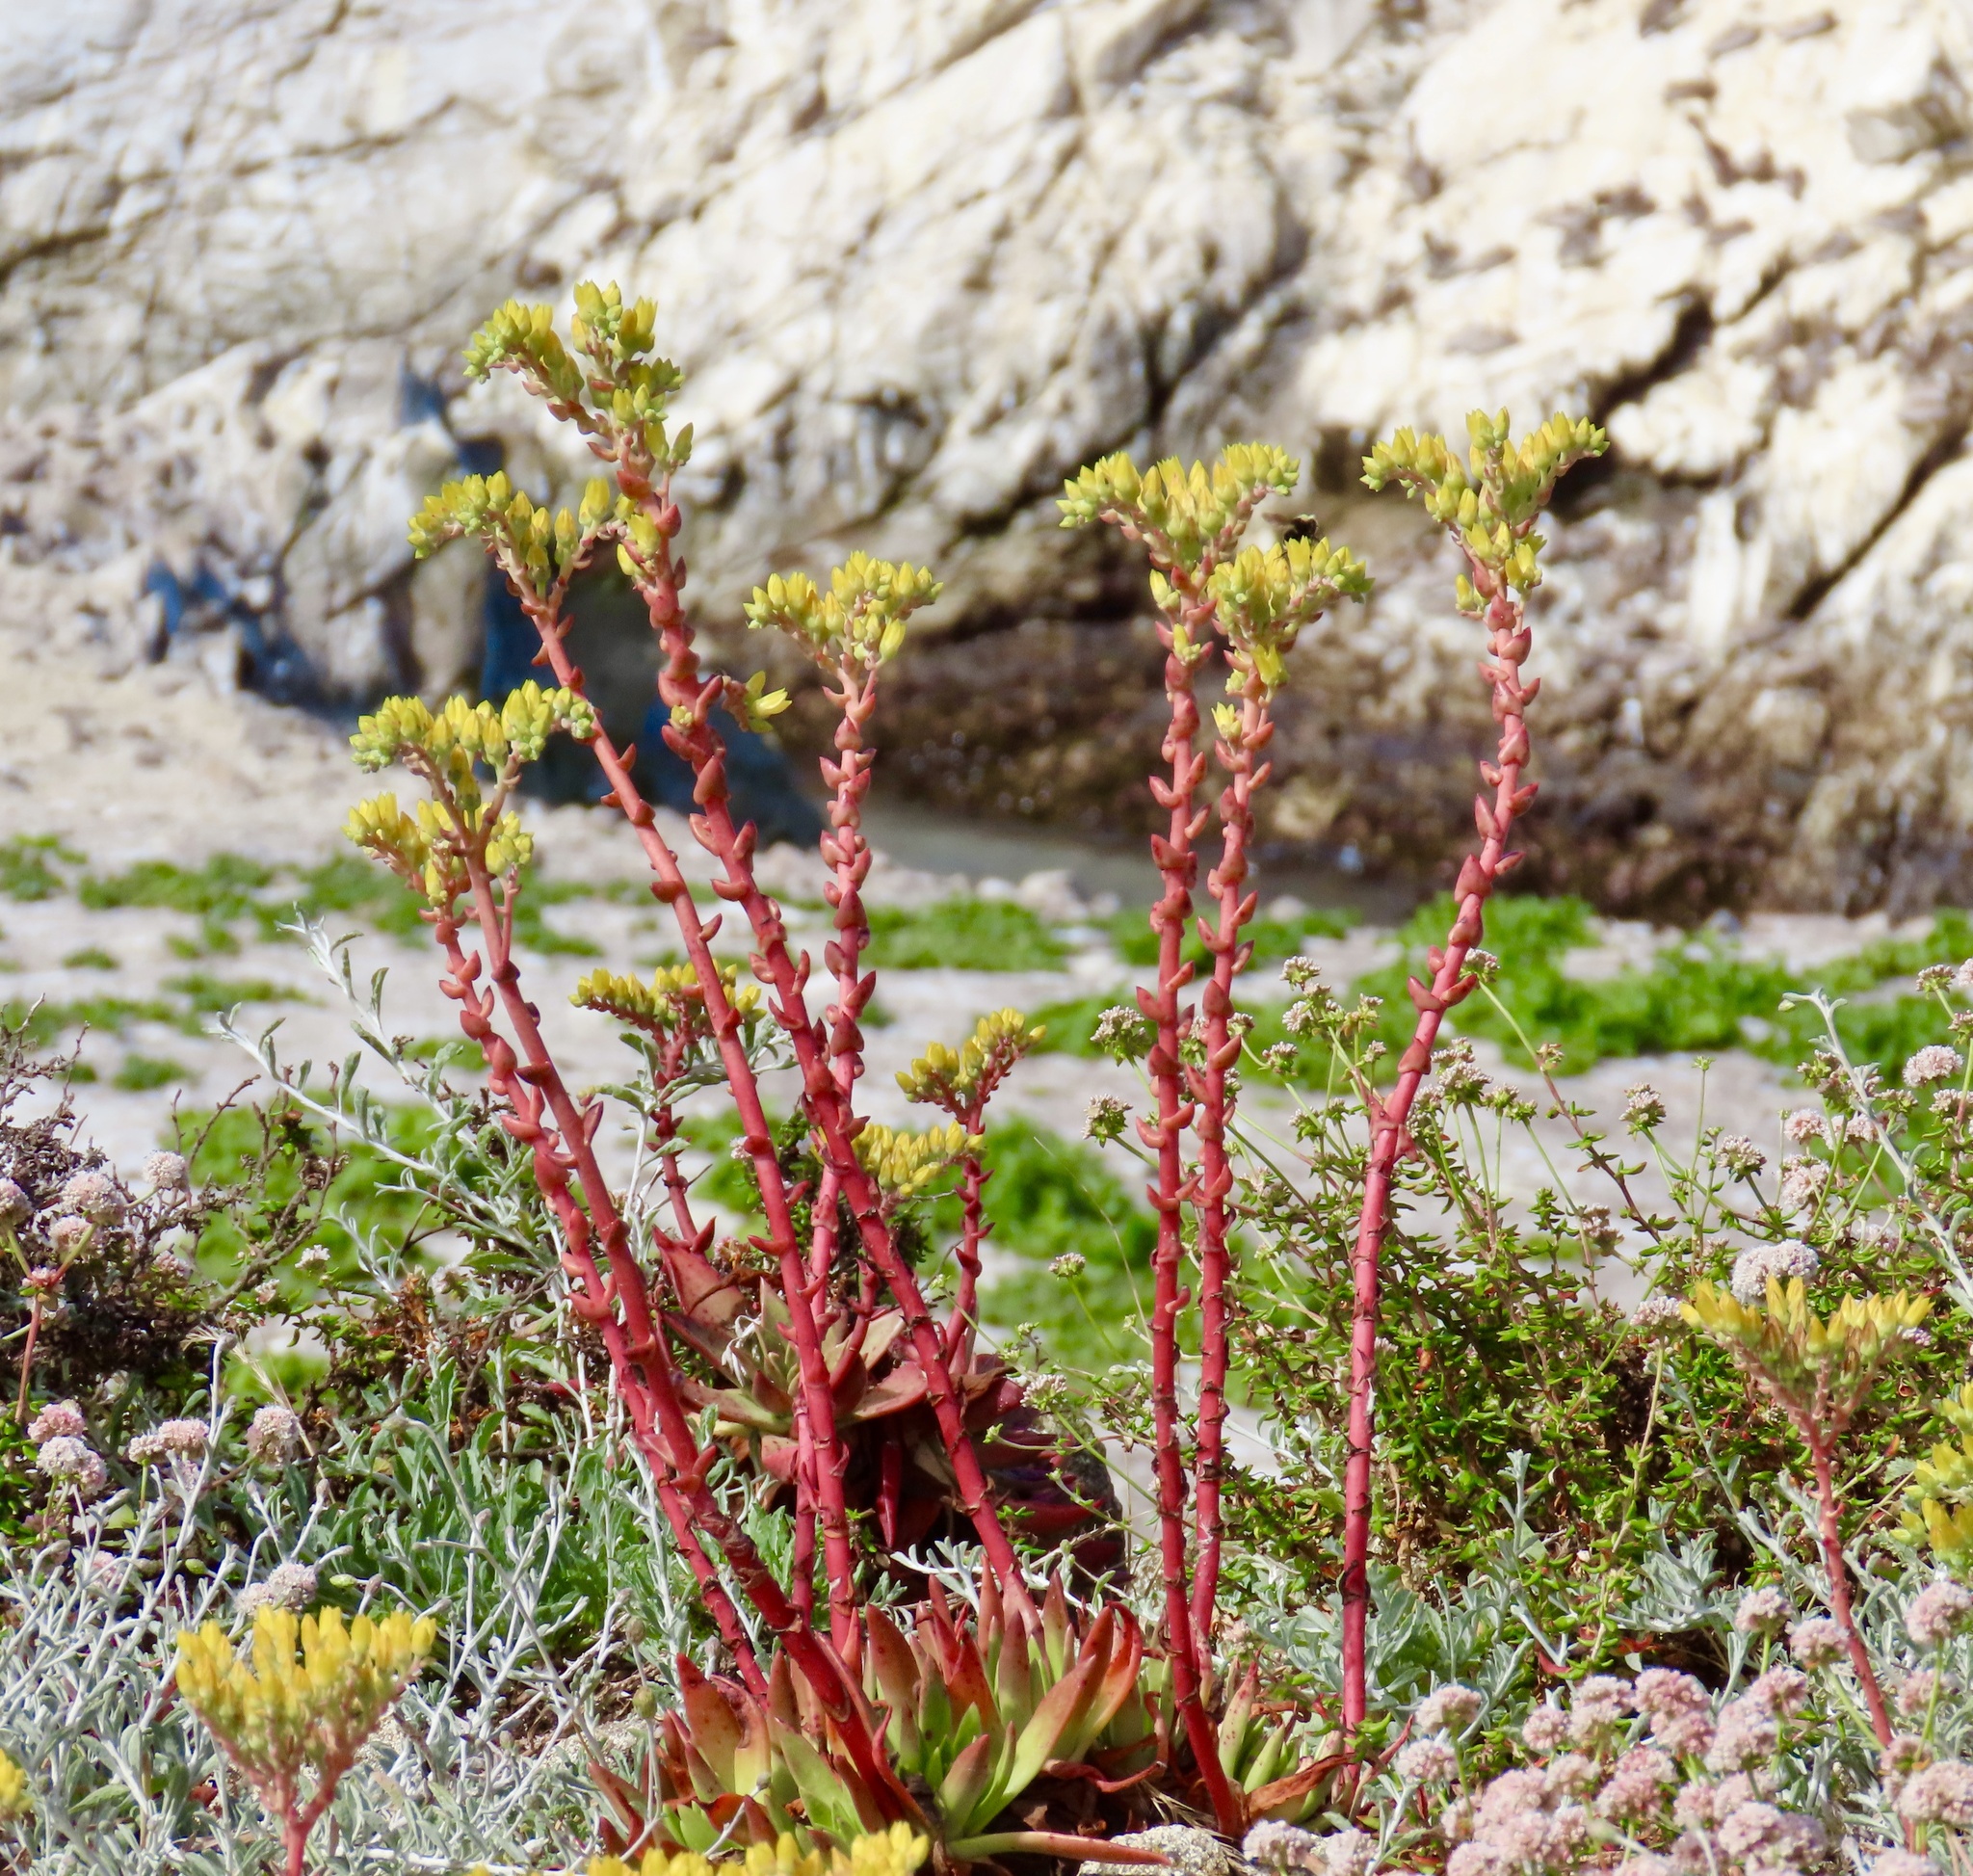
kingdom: Plantae
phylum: Tracheophyta
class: Magnoliopsida
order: Saxifragales
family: Crassulaceae
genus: Dudleya
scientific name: Dudleya caespitosa
